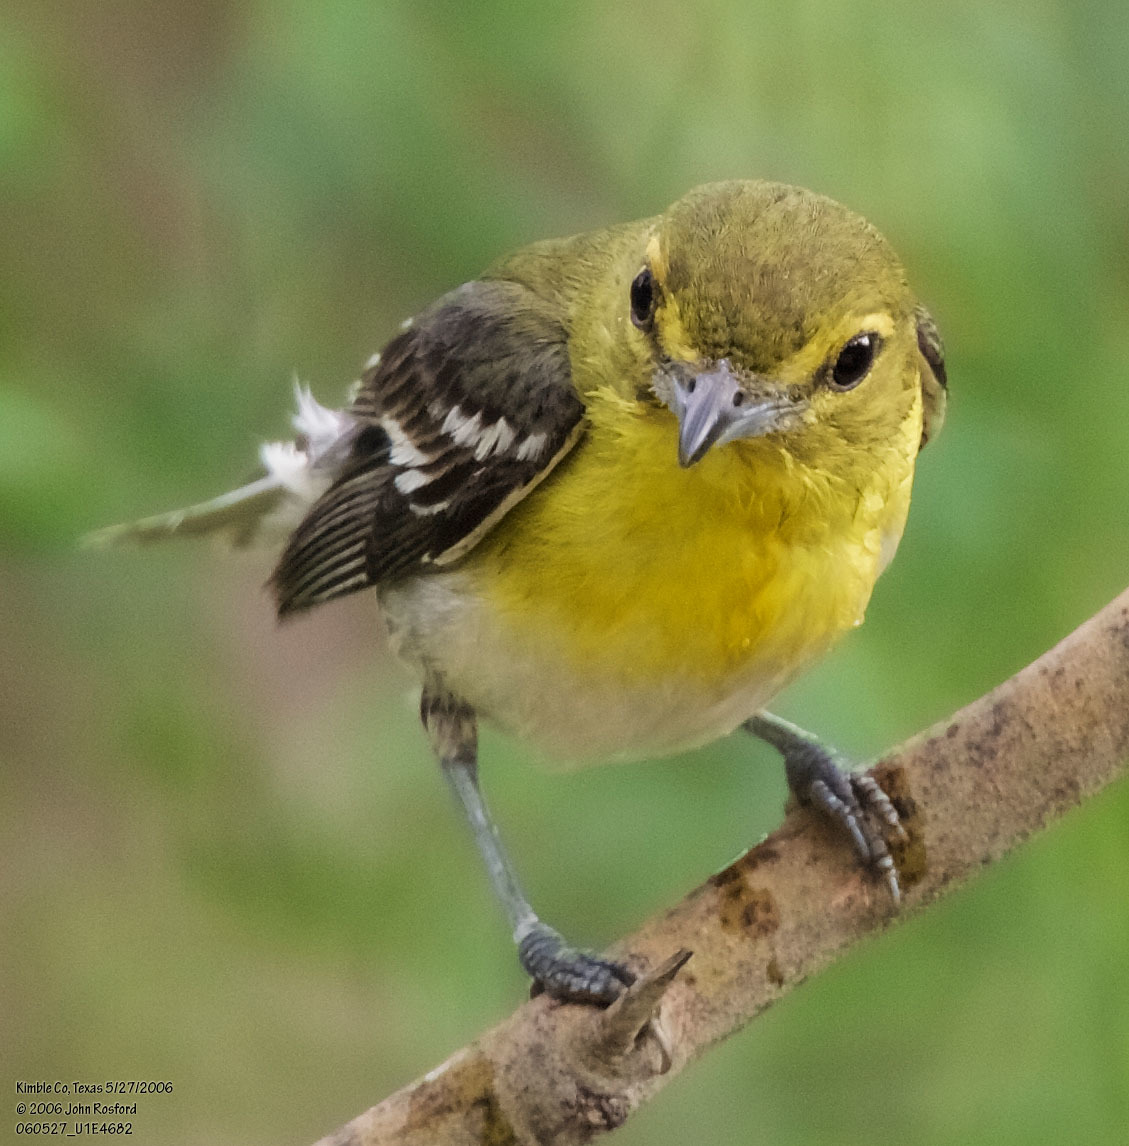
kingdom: Animalia
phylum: Chordata
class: Aves
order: Passeriformes
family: Vireonidae
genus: Vireo
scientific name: Vireo flavifrons
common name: Yellow-throated vireo
